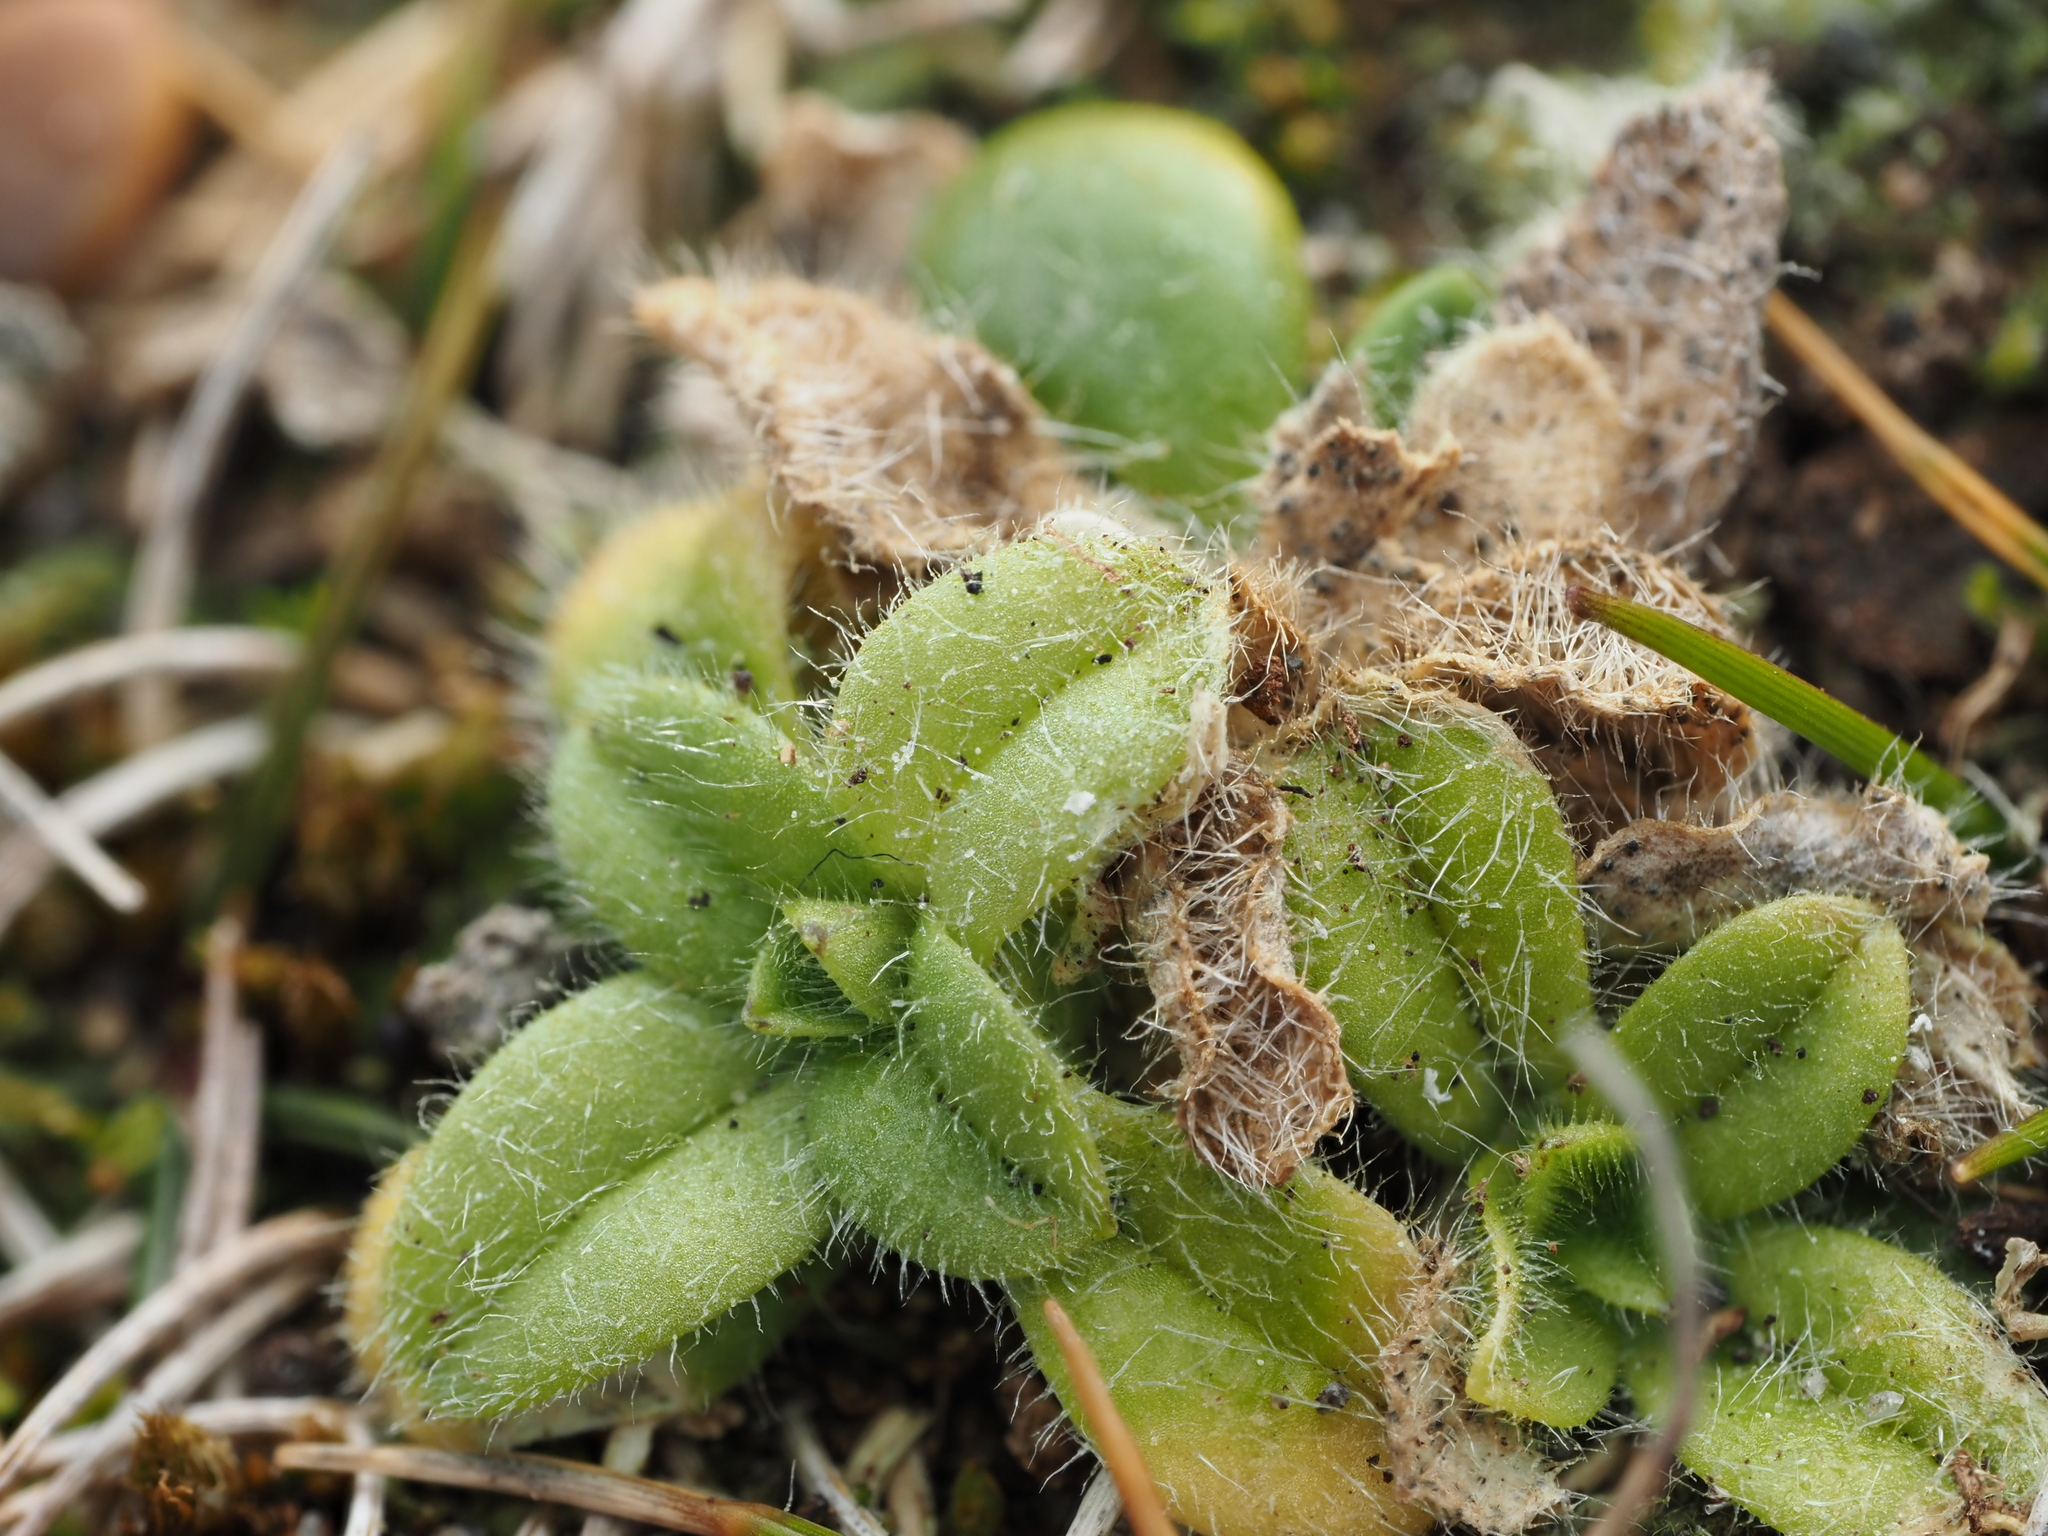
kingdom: Plantae
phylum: Tracheophyta
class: Magnoliopsida
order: Caryophyllales
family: Caryophyllaceae
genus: Cerastium
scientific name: Cerastium glomeratum
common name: Sticky chickweed
